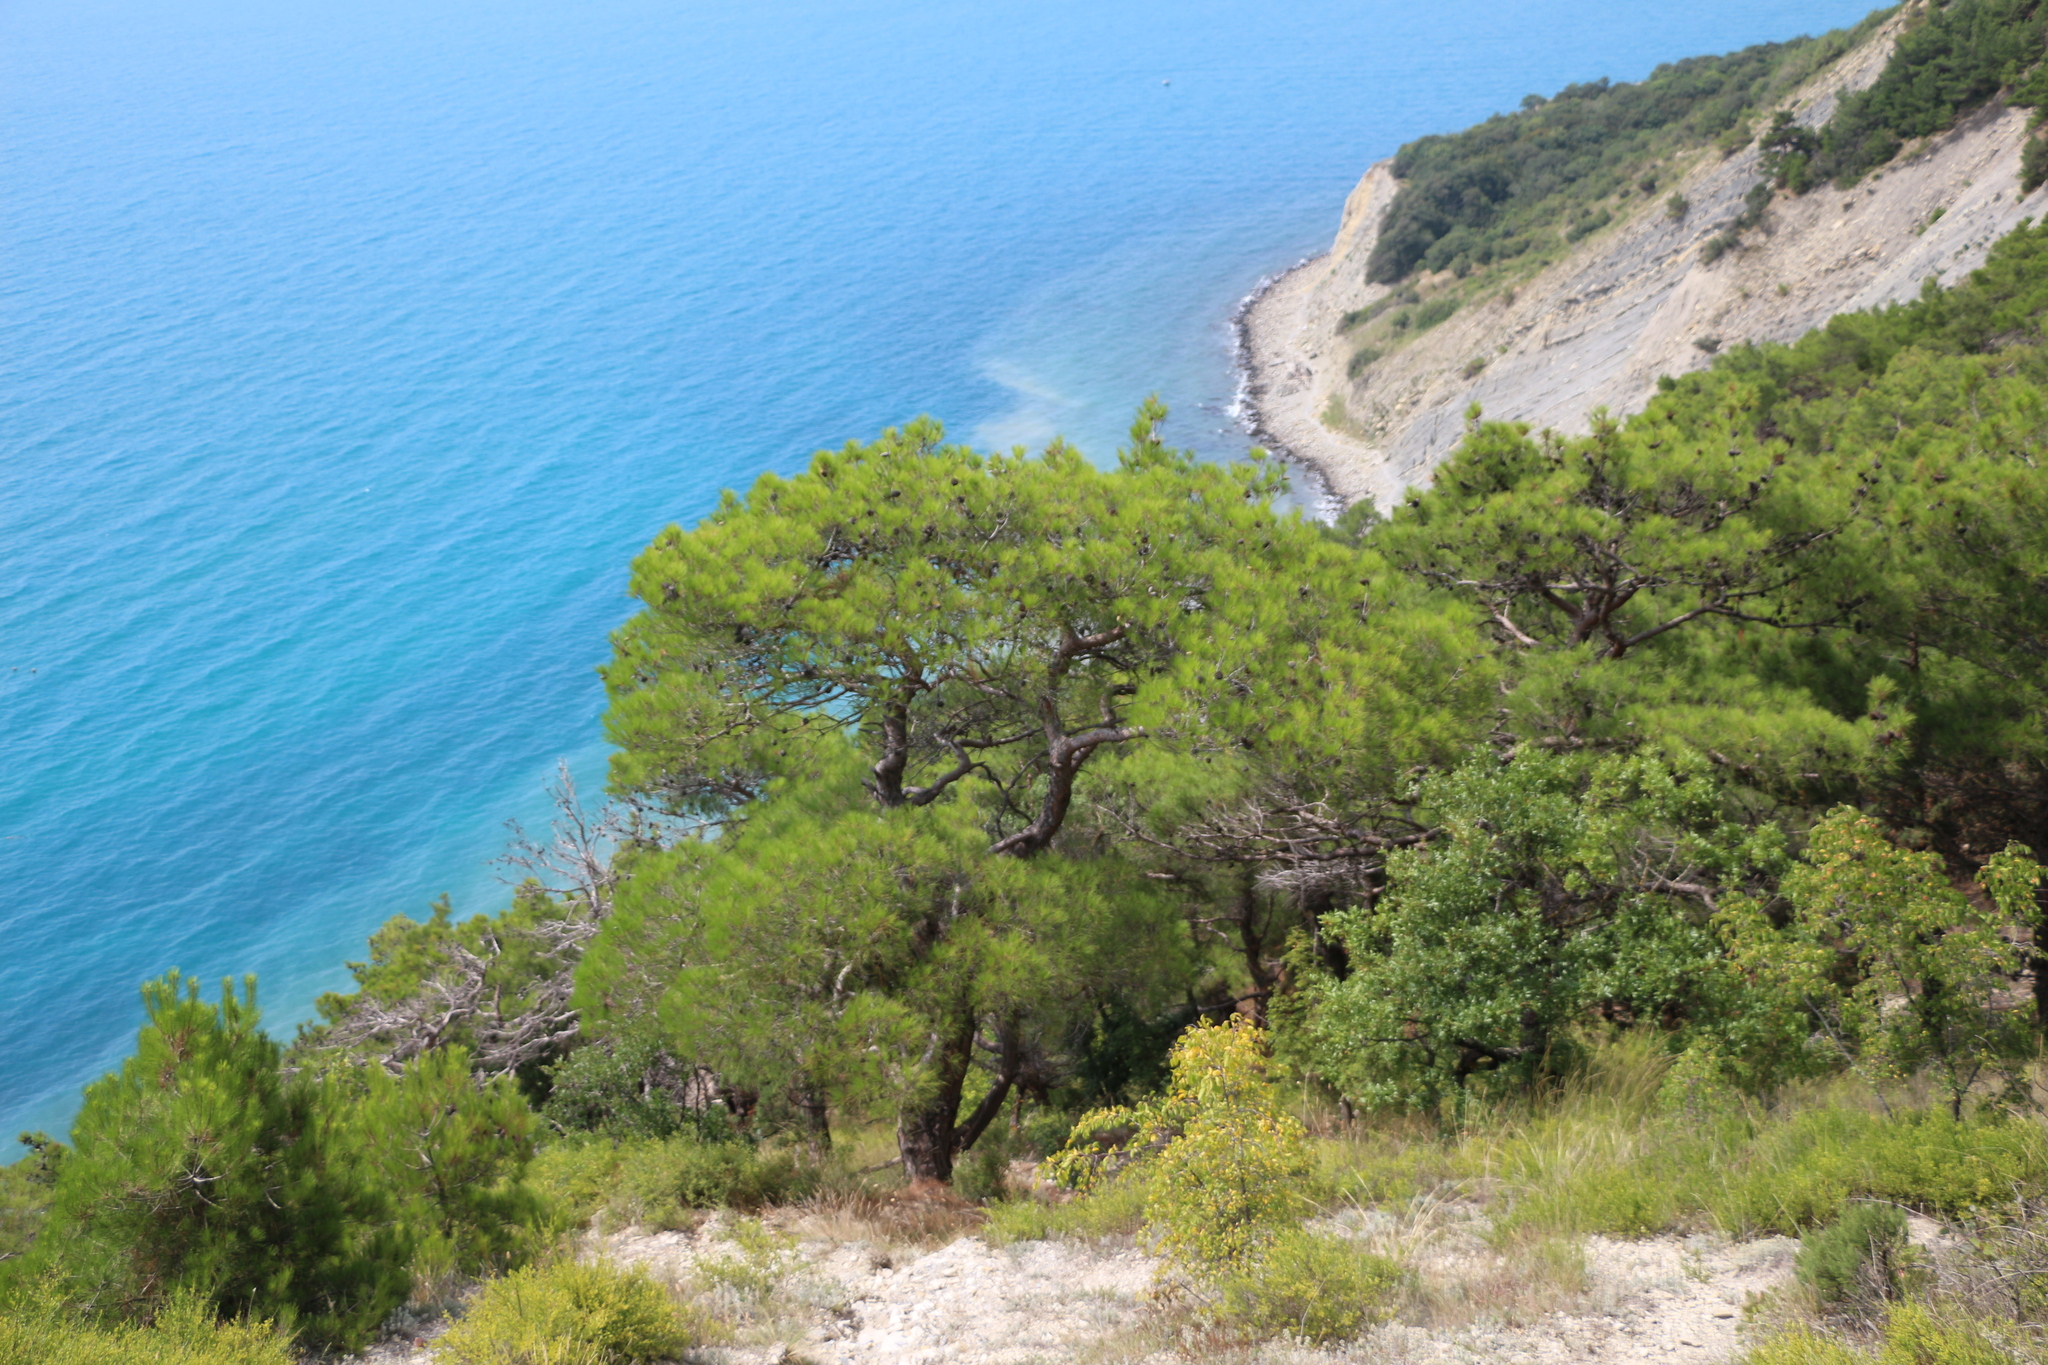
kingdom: Plantae
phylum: Tracheophyta
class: Pinopsida
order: Pinales
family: Pinaceae
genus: Pinus
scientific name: Pinus brutia
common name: Turkish pine
